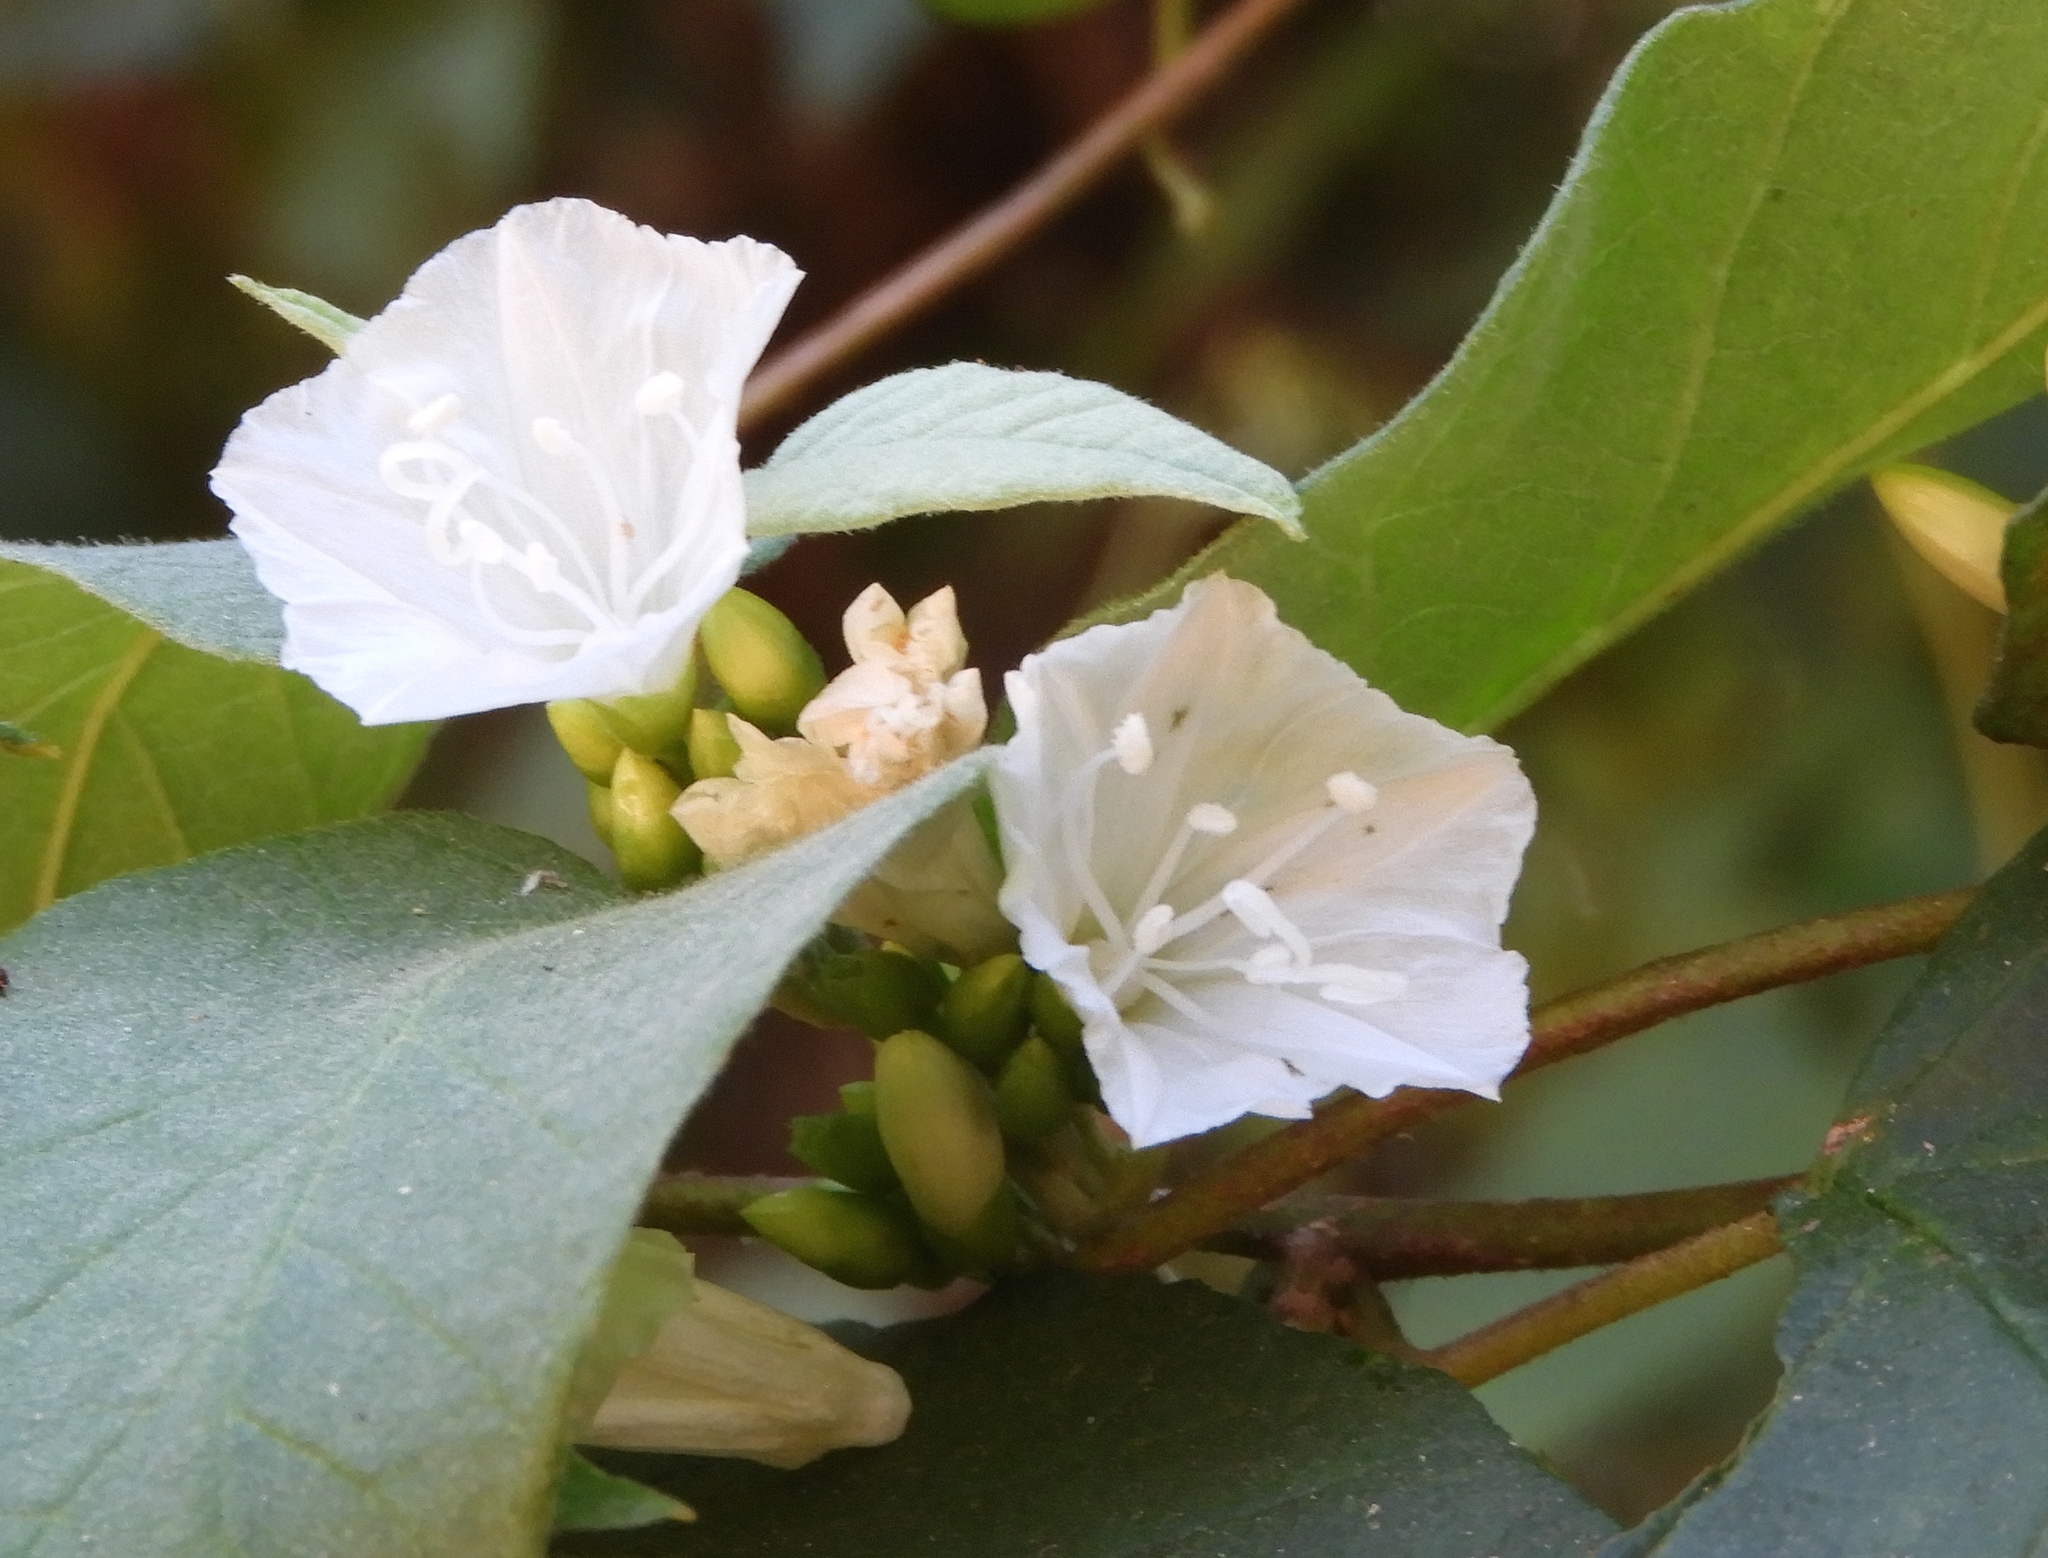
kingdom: Plantae
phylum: Tracheophyta
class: Magnoliopsida
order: Solanales
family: Convolvulaceae
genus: Jacquemontia
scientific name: Jacquemontia nodiflora
